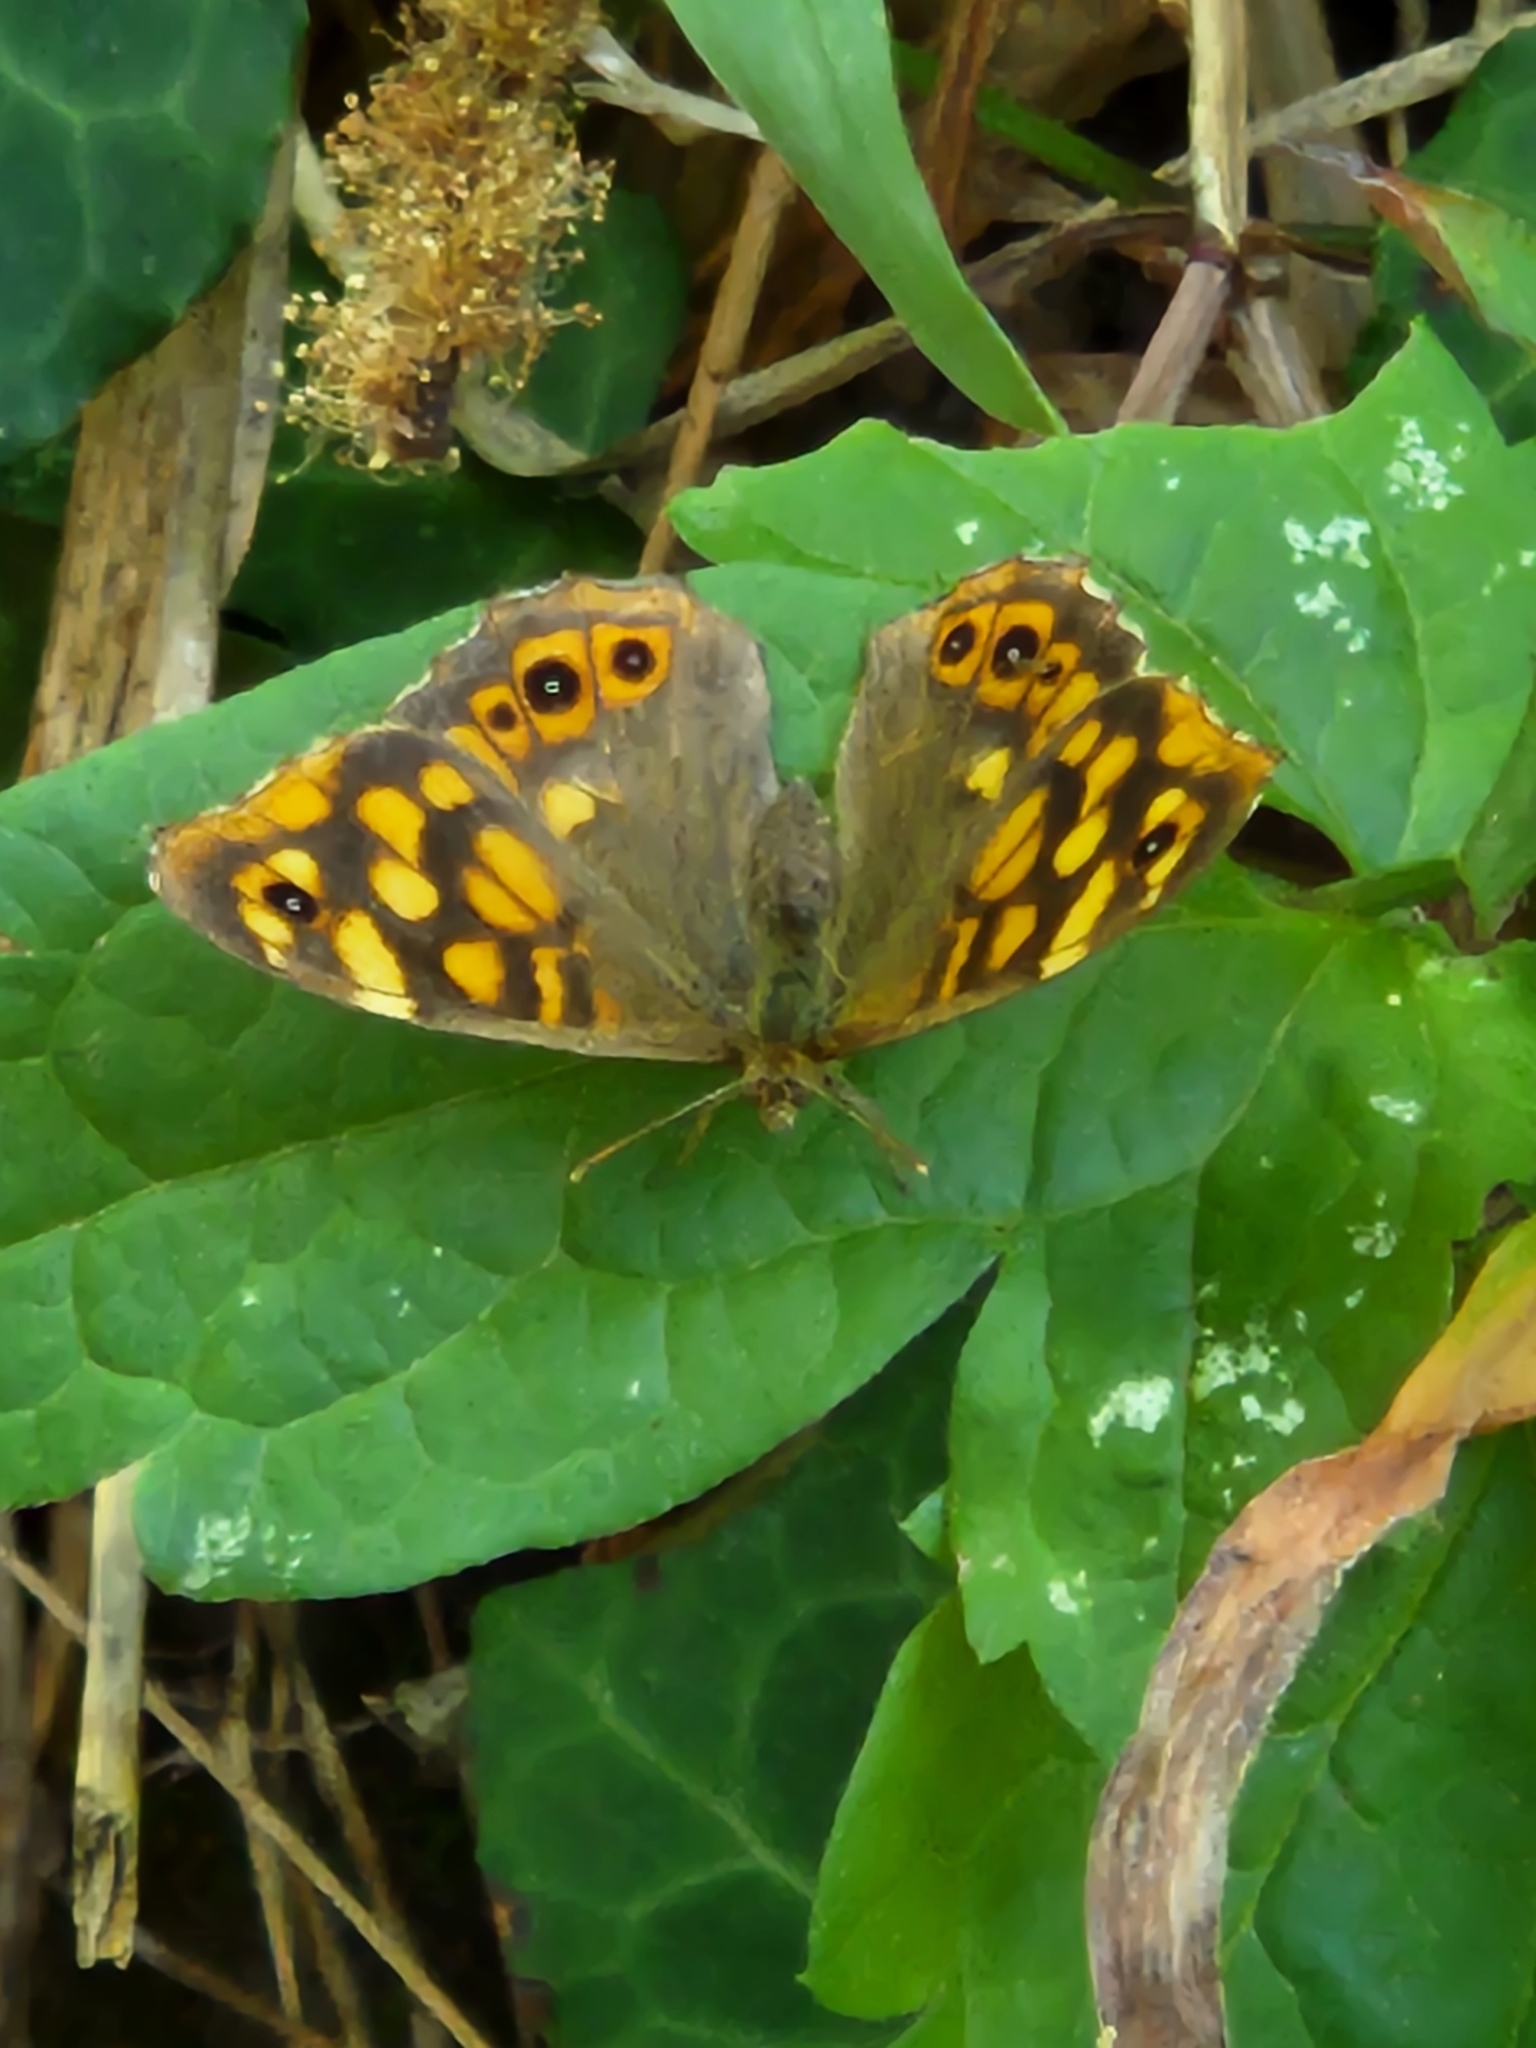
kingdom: Animalia
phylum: Arthropoda
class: Insecta
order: Lepidoptera
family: Nymphalidae
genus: Pararge
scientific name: Pararge aegeria
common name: Speckled wood
